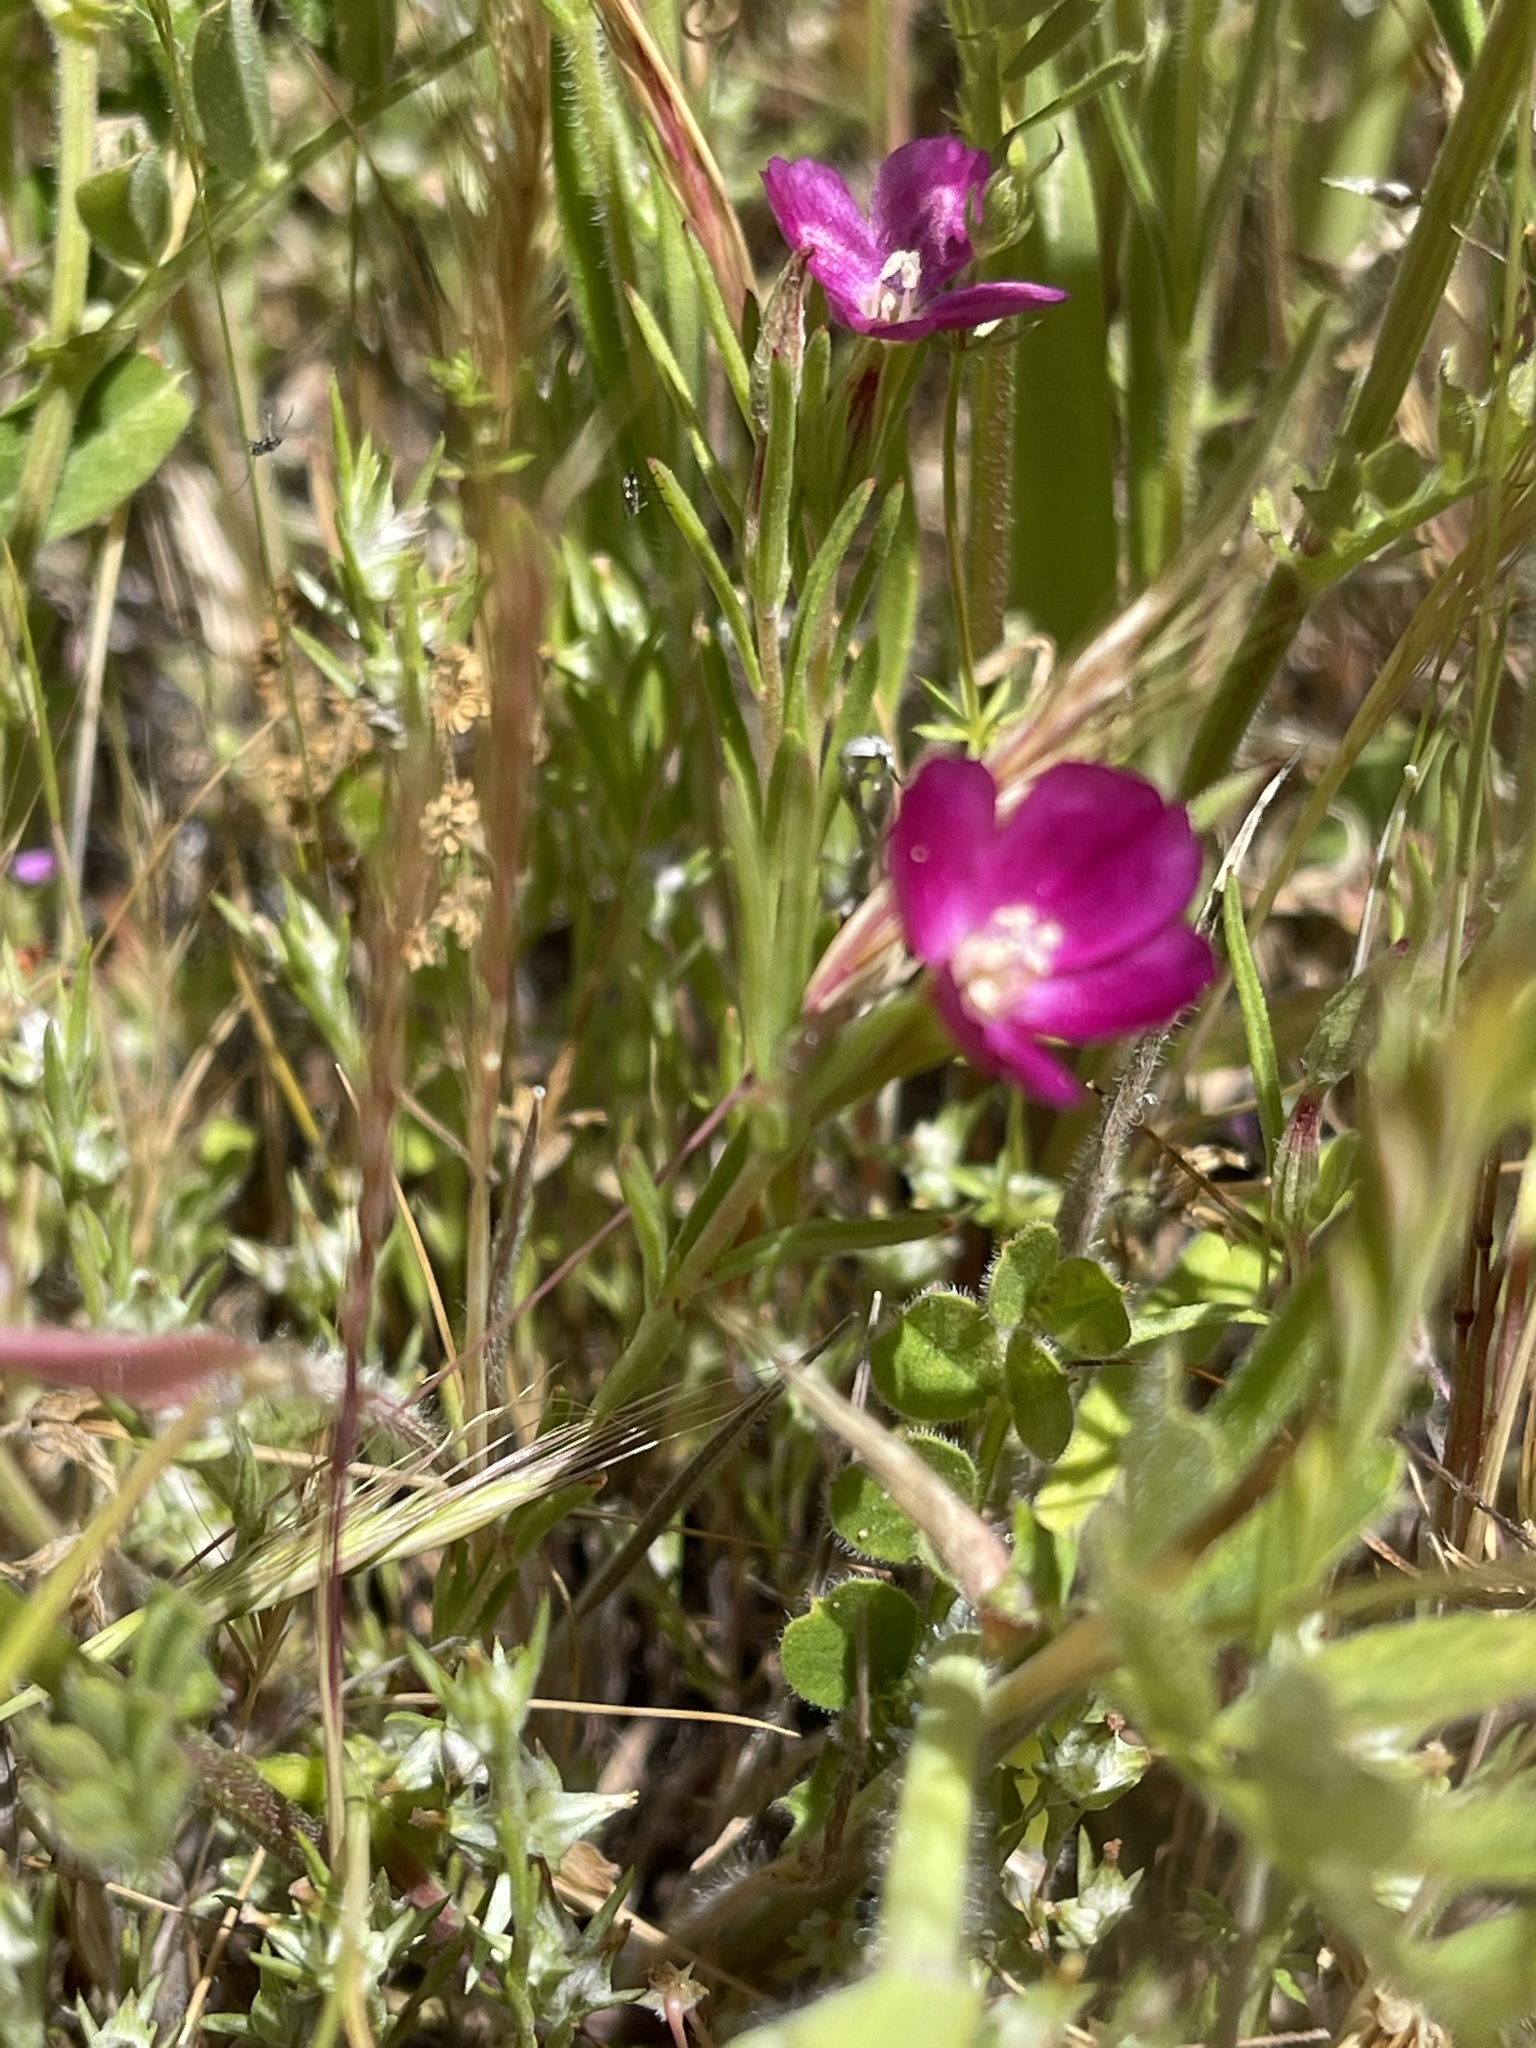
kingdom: Plantae
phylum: Tracheophyta
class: Magnoliopsida
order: Myrtales
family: Onagraceae
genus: Clarkia
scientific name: Clarkia purpurea
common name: Purple clarkia
